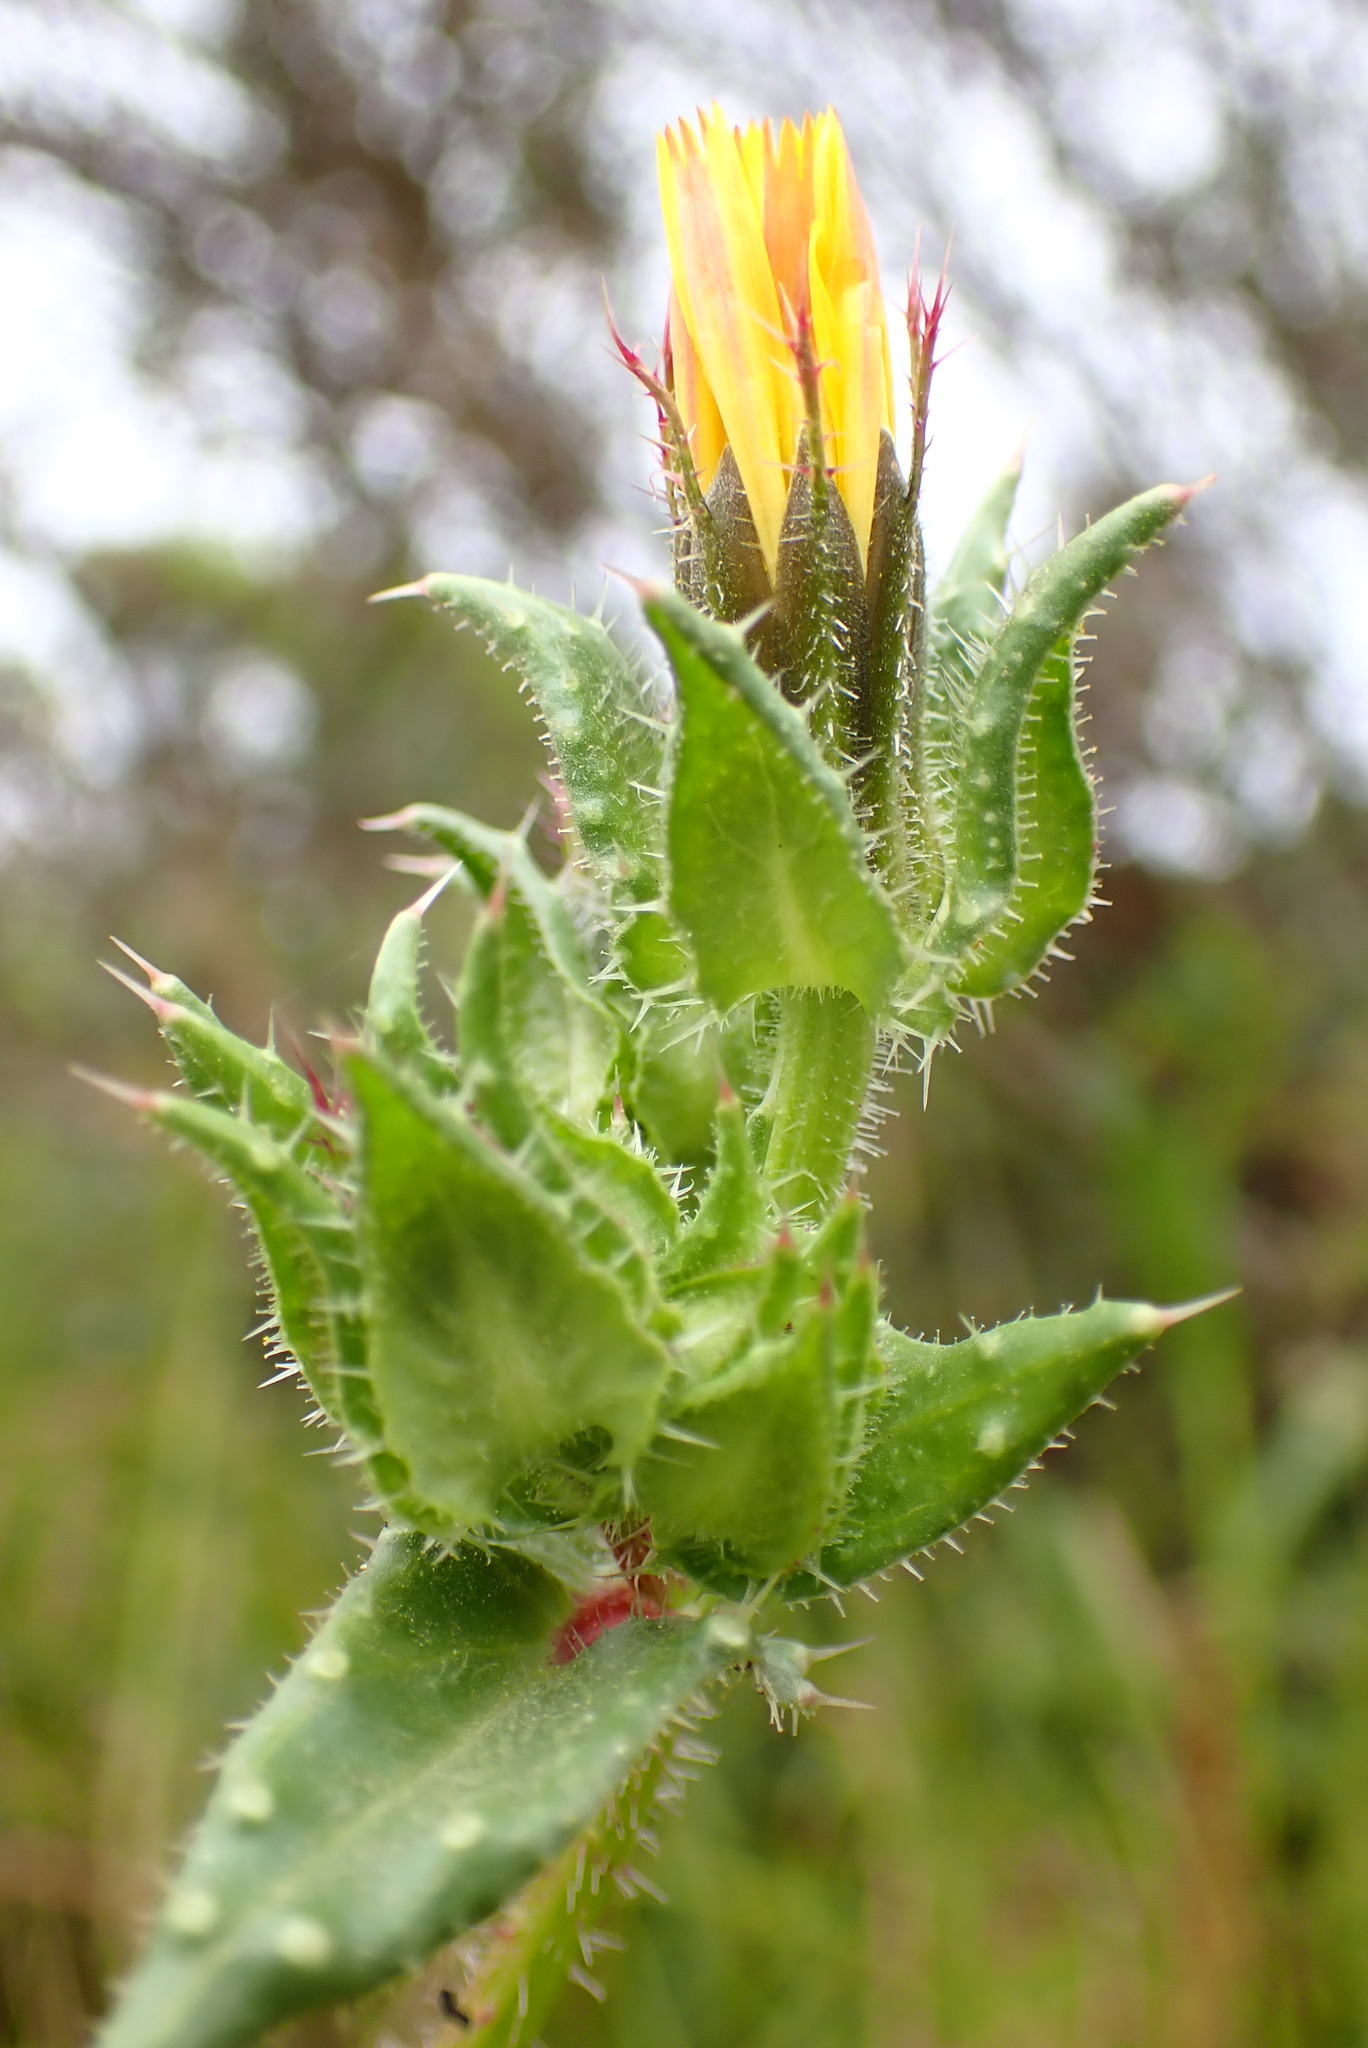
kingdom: Plantae
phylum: Tracheophyta
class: Magnoliopsida
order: Asterales
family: Asteraceae
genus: Helminthotheca
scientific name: Helminthotheca echioides
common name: Ox-tongue
